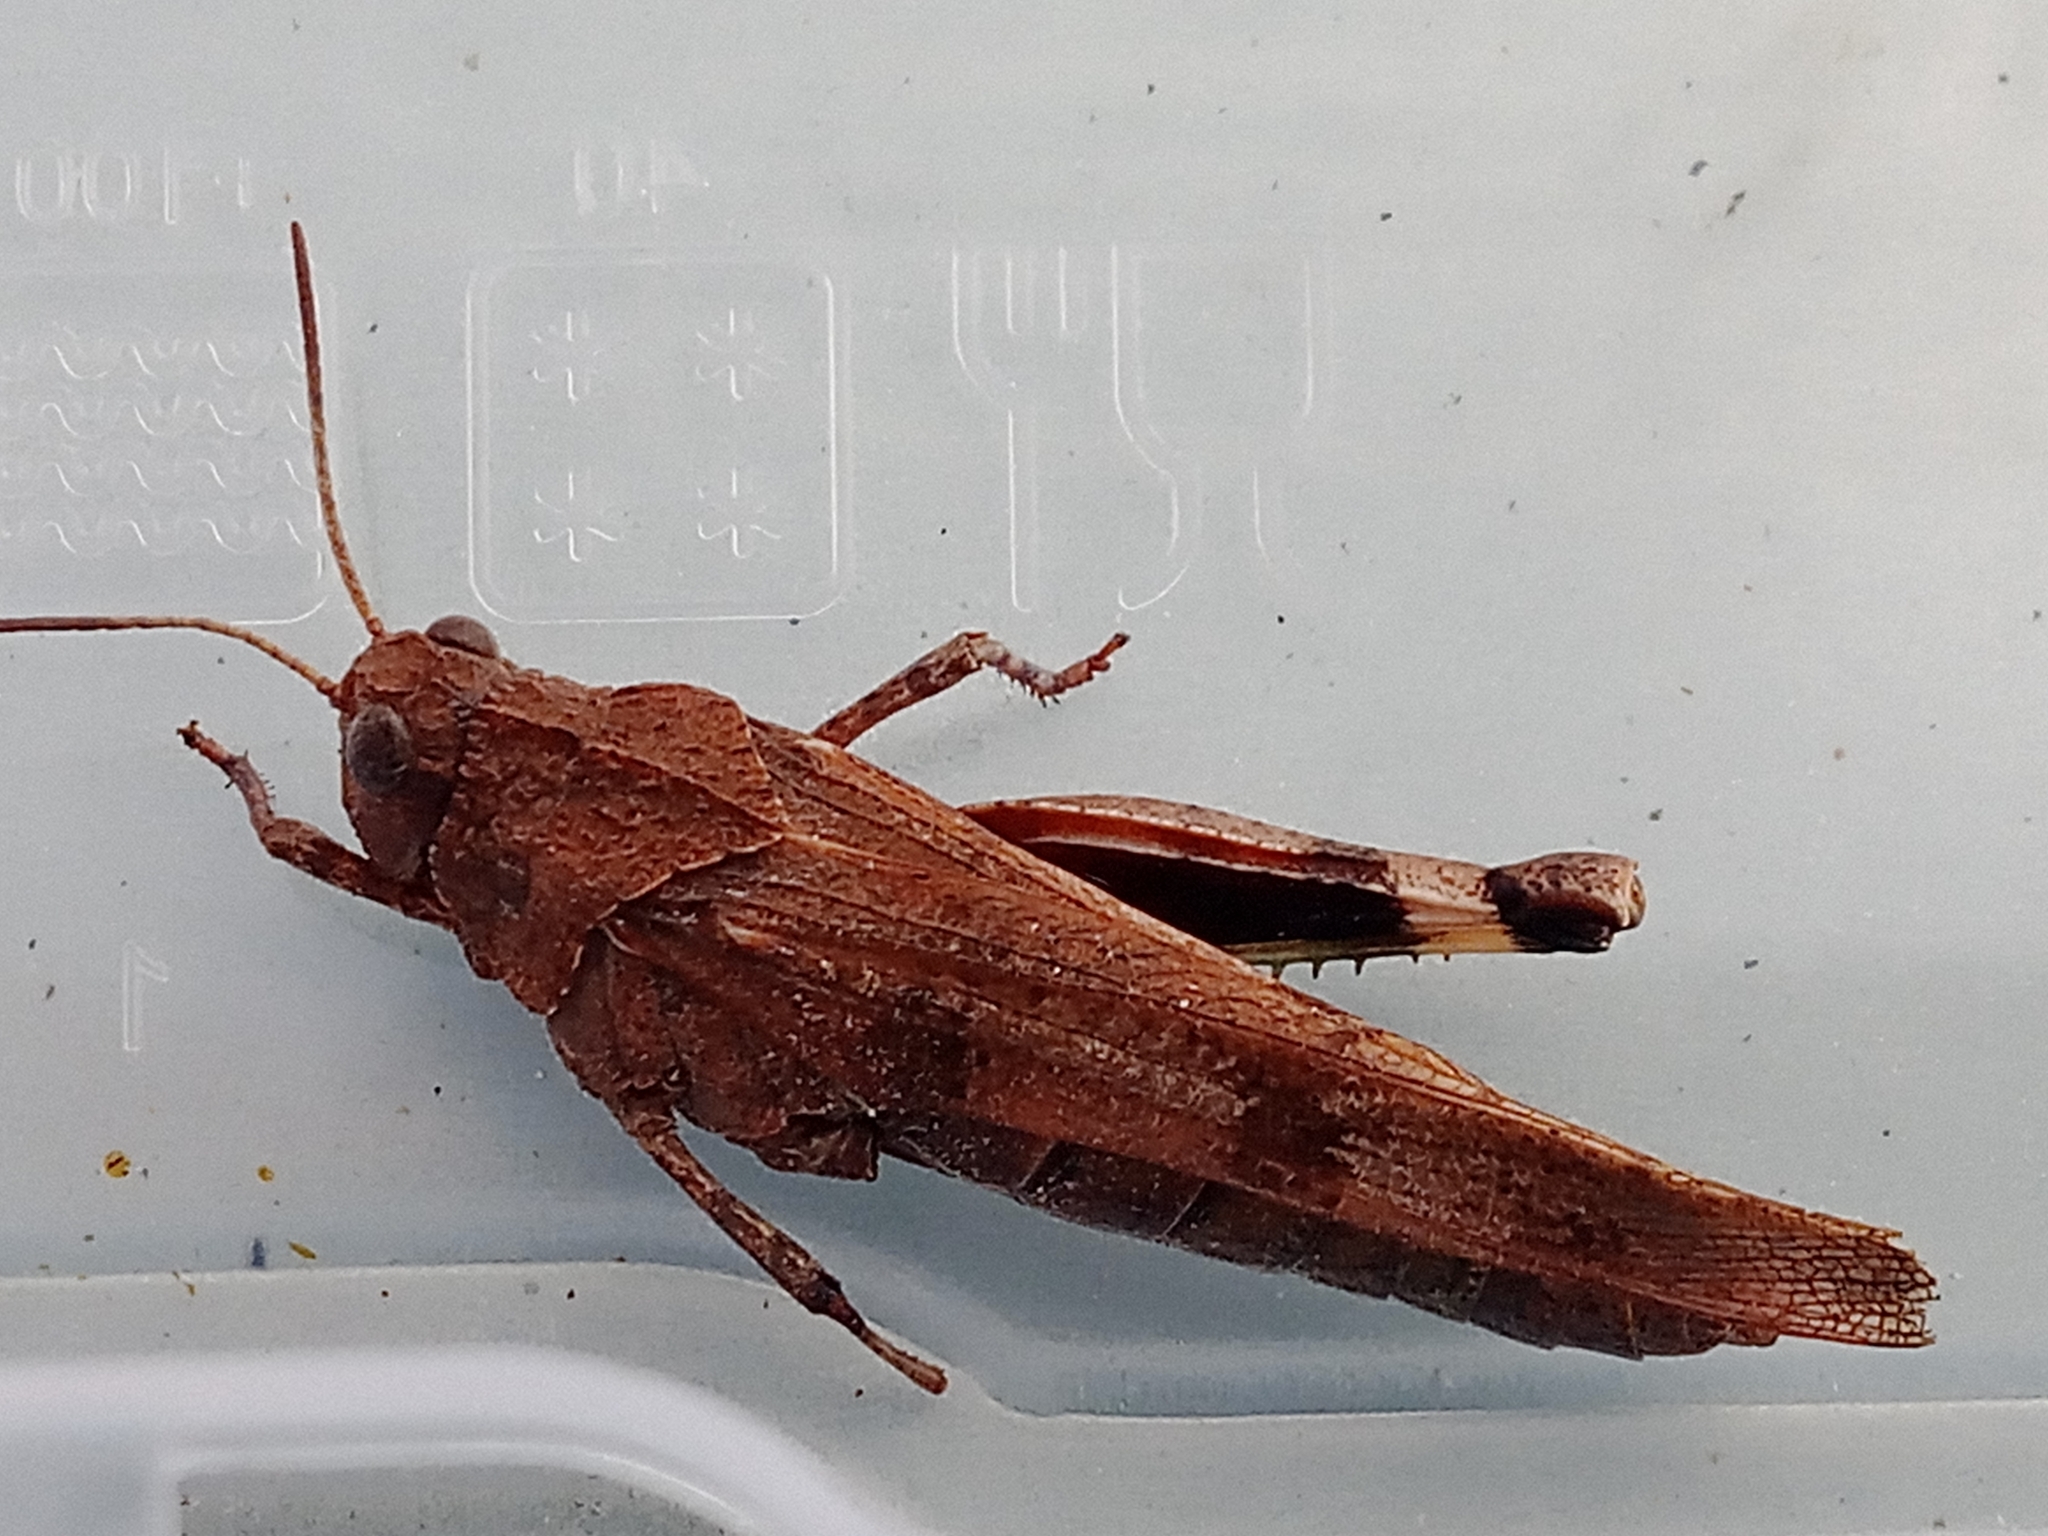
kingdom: Animalia
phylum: Arthropoda
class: Insecta
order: Orthoptera
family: Acrididae
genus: Oedipoda
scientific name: Oedipoda caerulescens
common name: Blue-winged grasshopper
